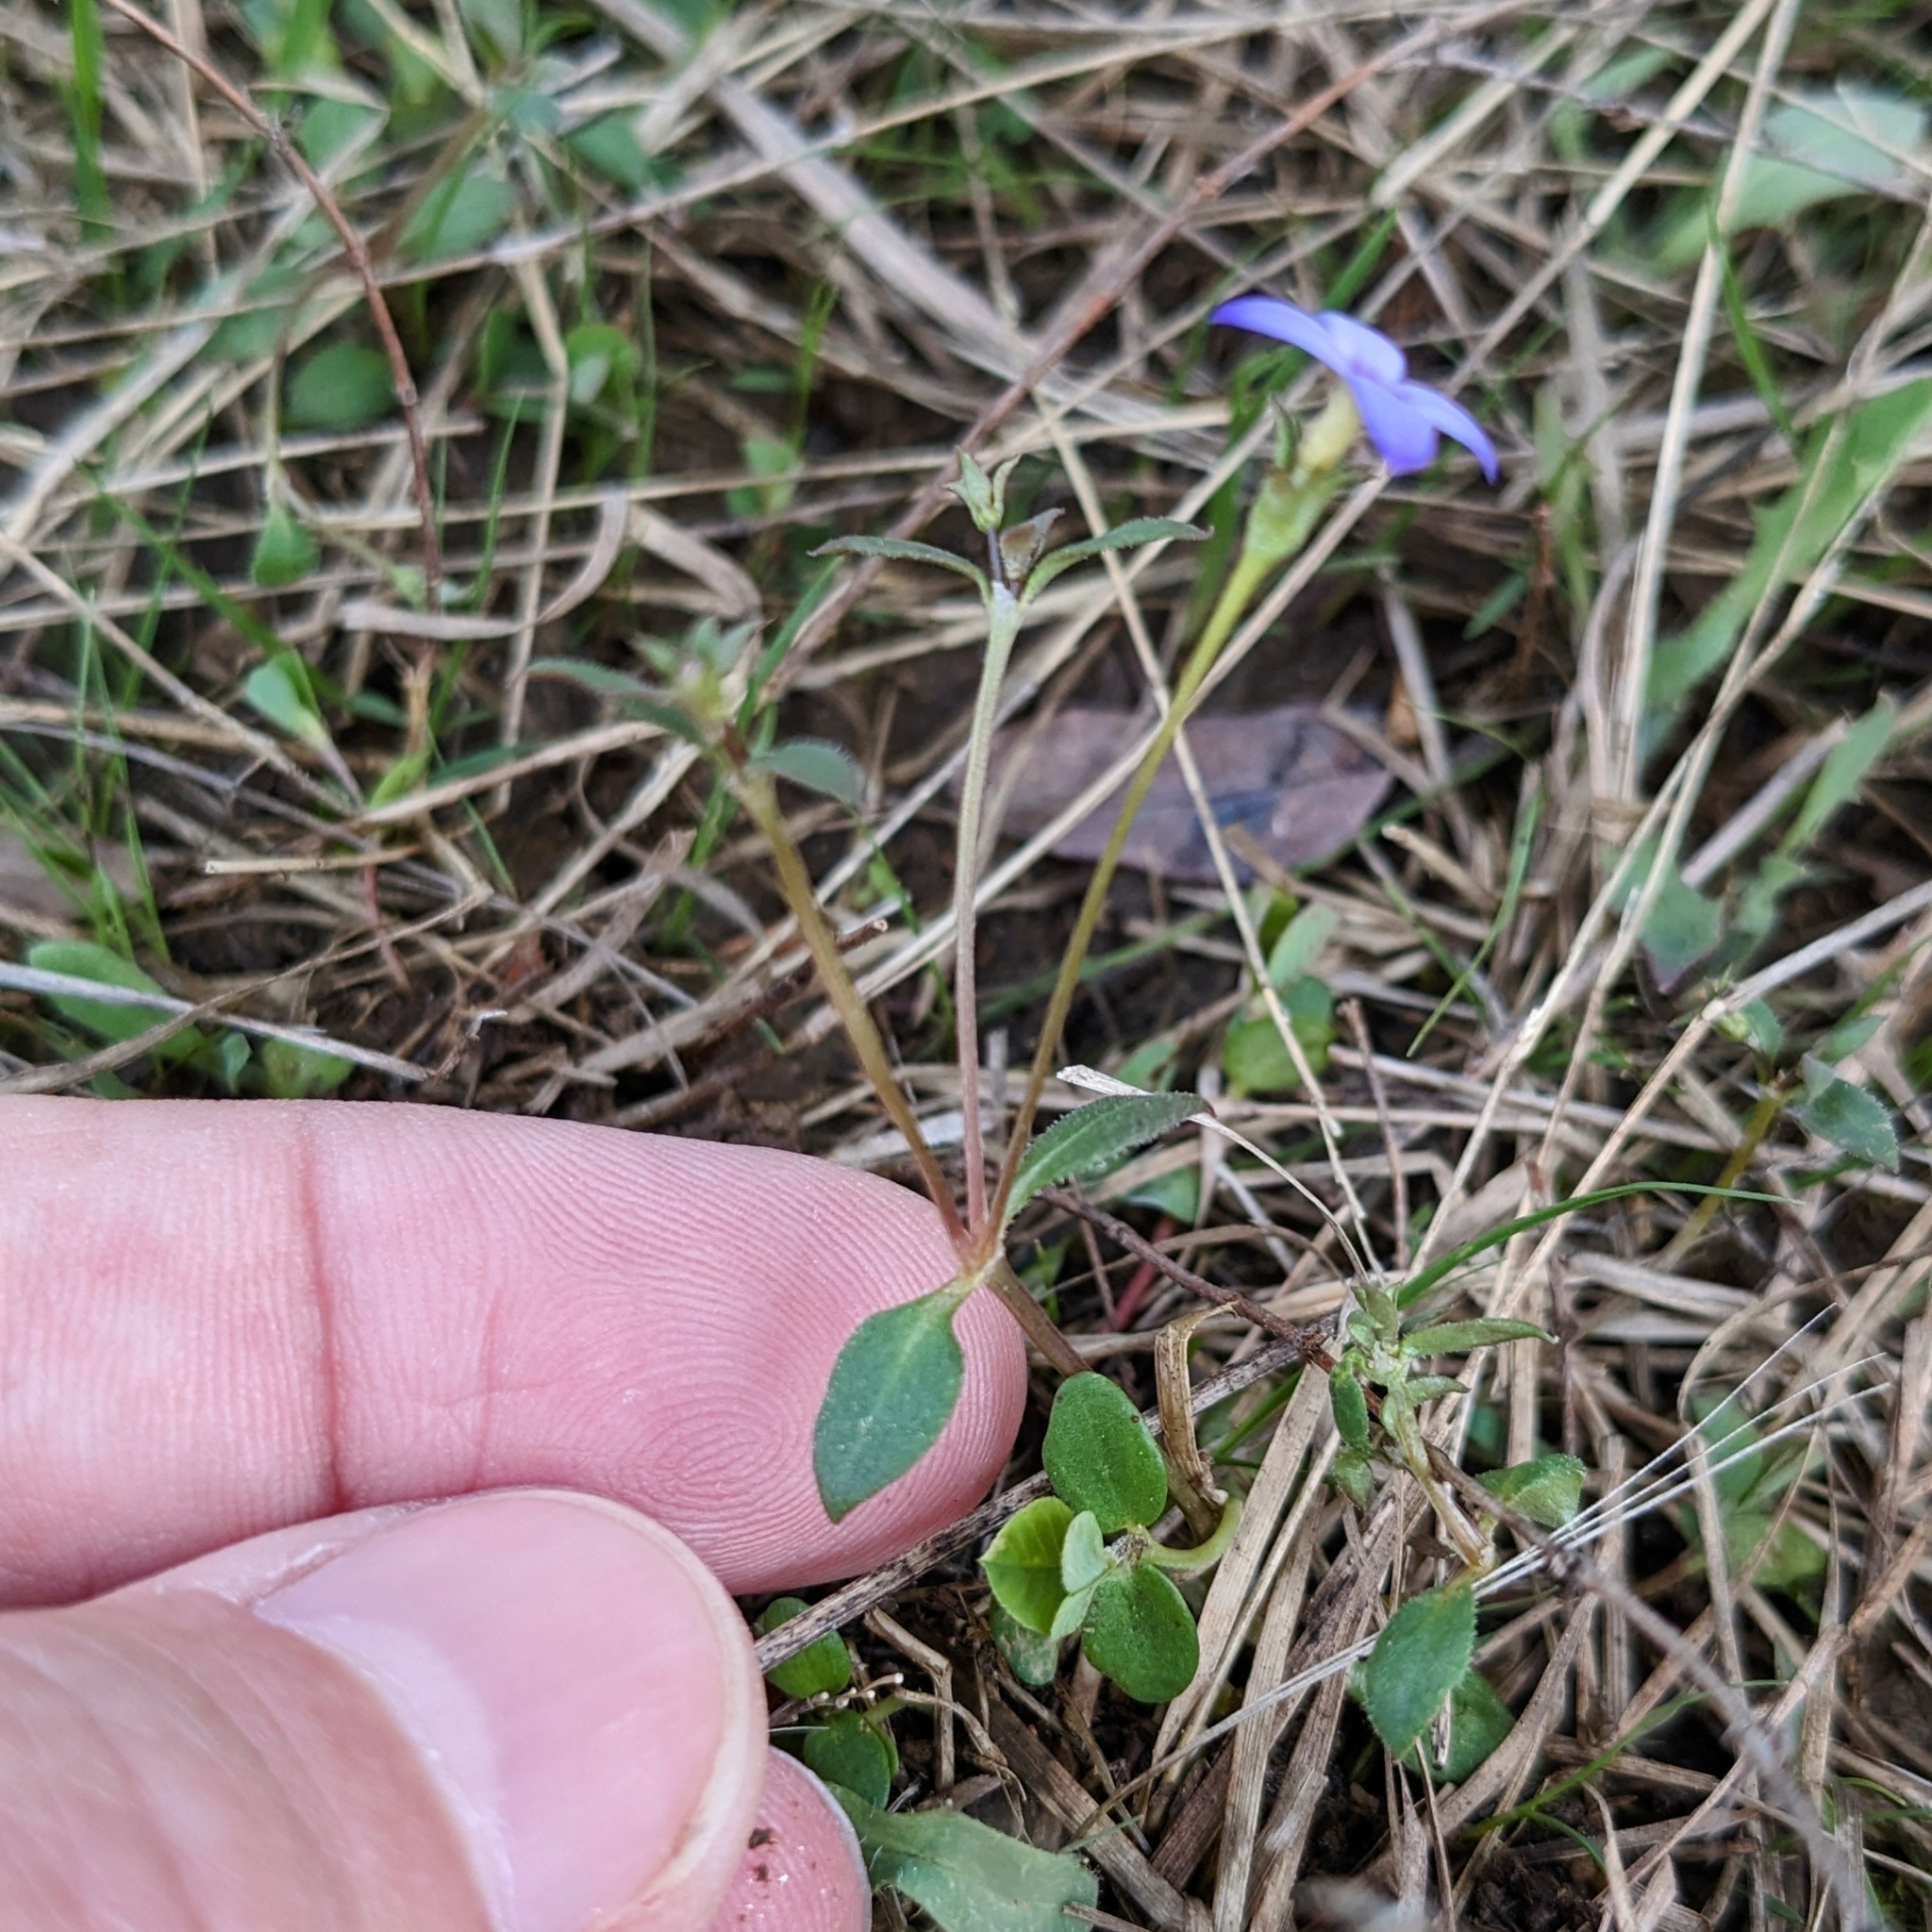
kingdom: Plantae
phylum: Tracheophyta
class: Magnoliopsida
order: Gentianales
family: Rubiaceae
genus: Houstonia
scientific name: Houstonia pusilla
